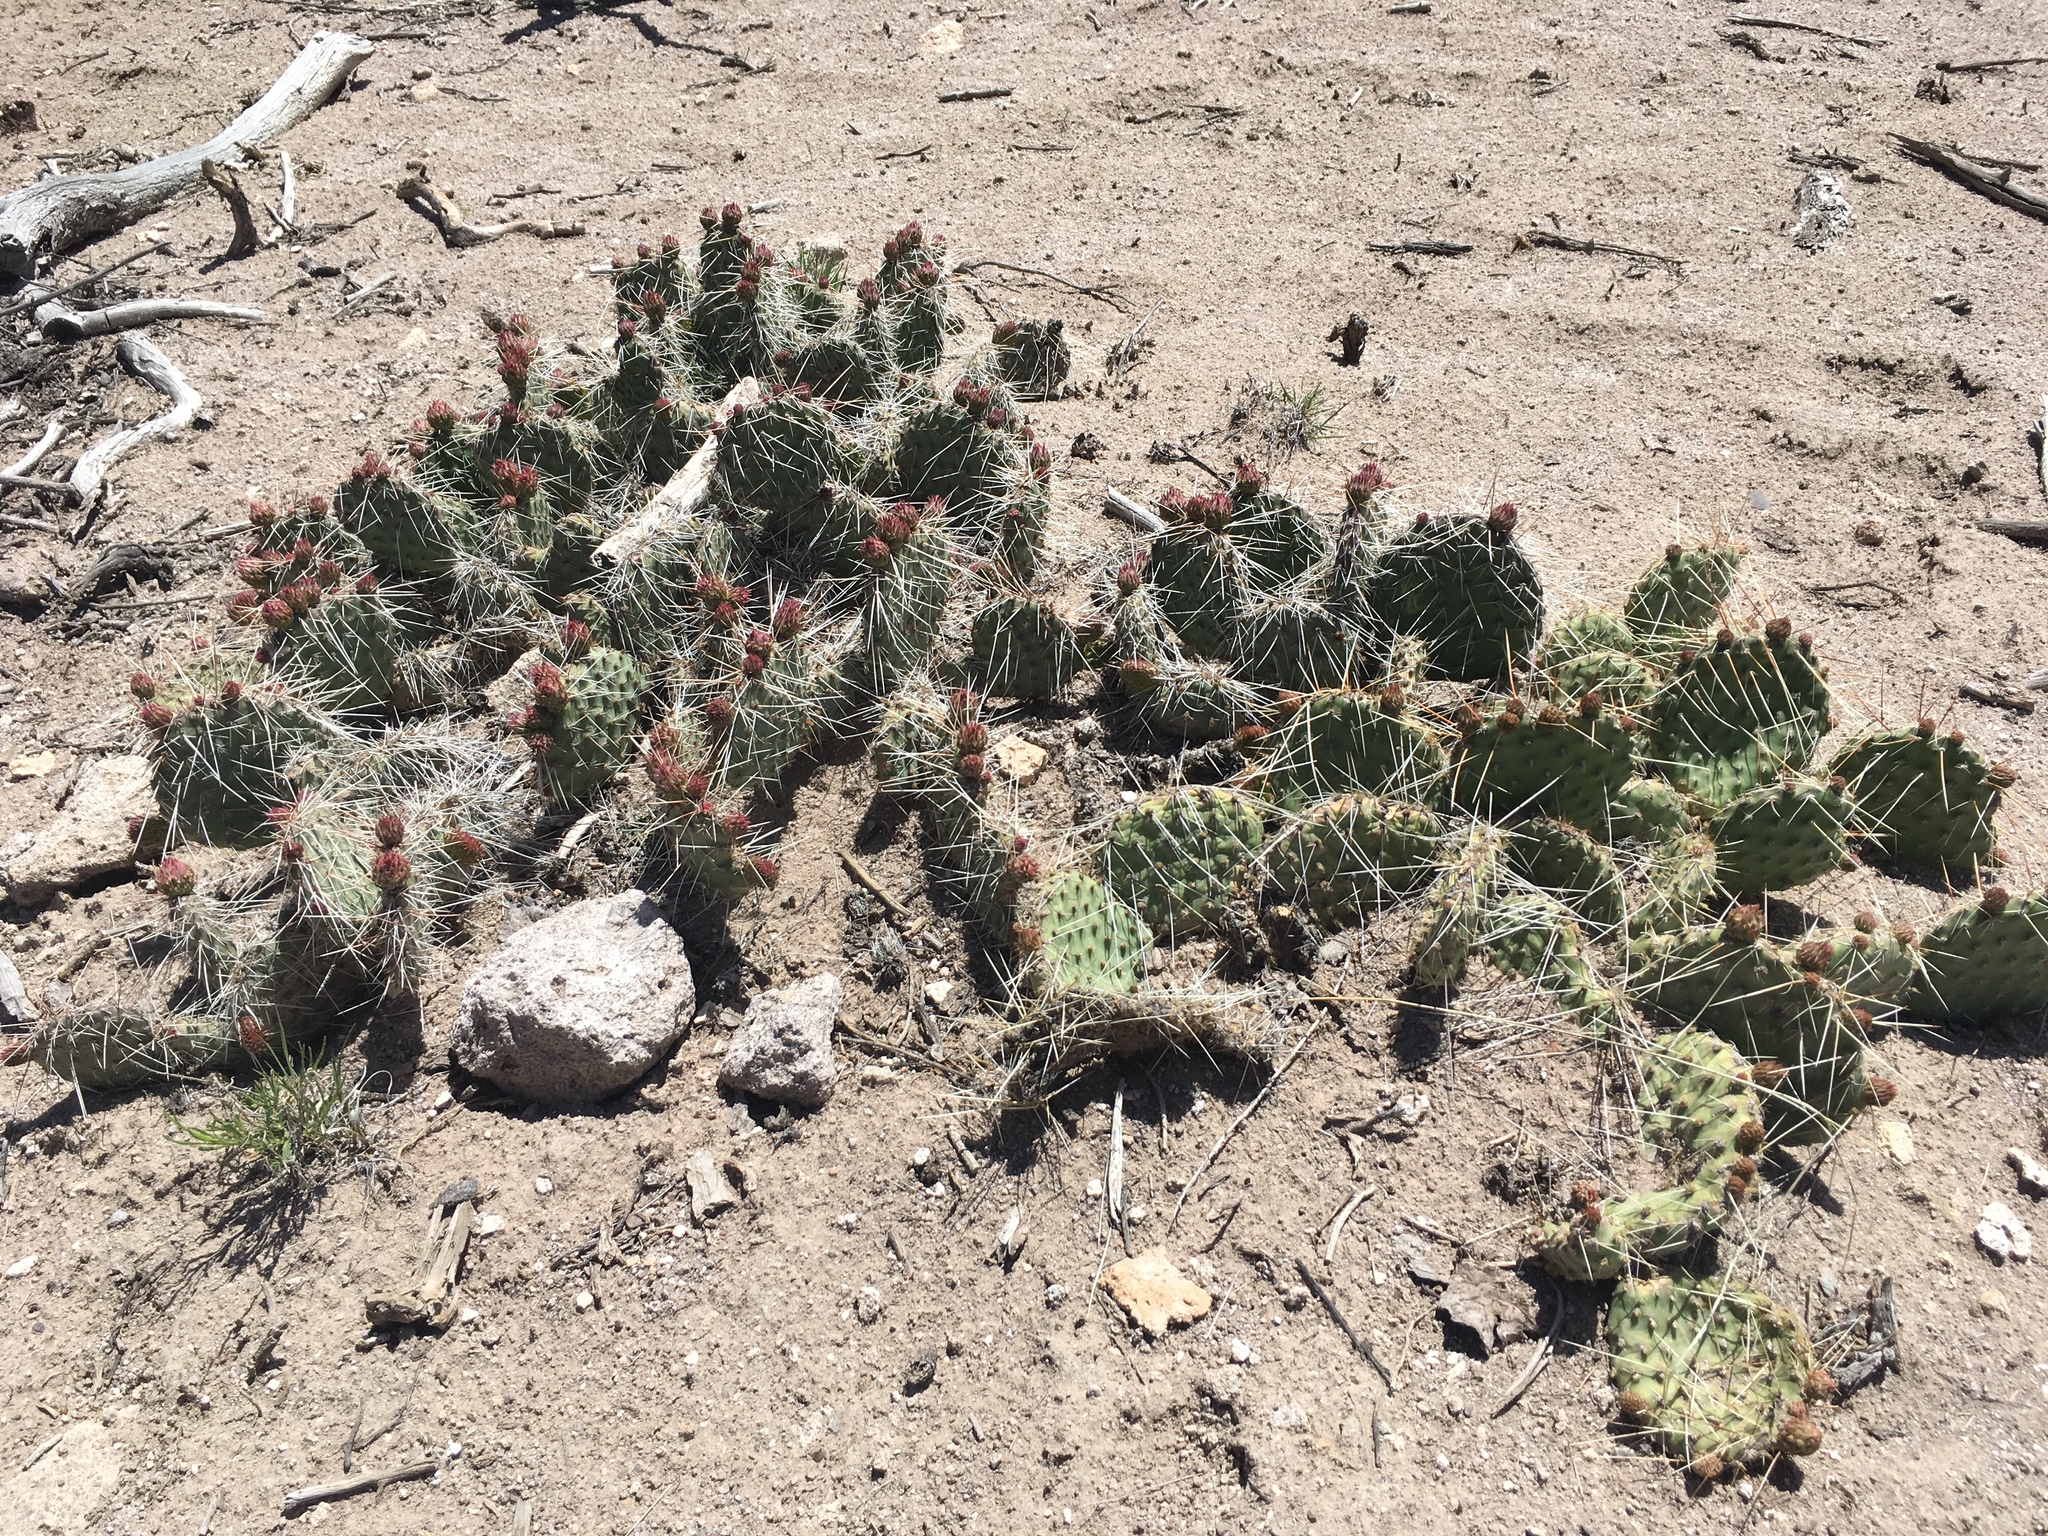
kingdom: Plantae
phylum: Tracheophyta
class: Magnoliopsida
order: Caryophyllales
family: Cactaceae
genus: Opuntia
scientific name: Opuntia polyacantha
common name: Plains prickly-pear
